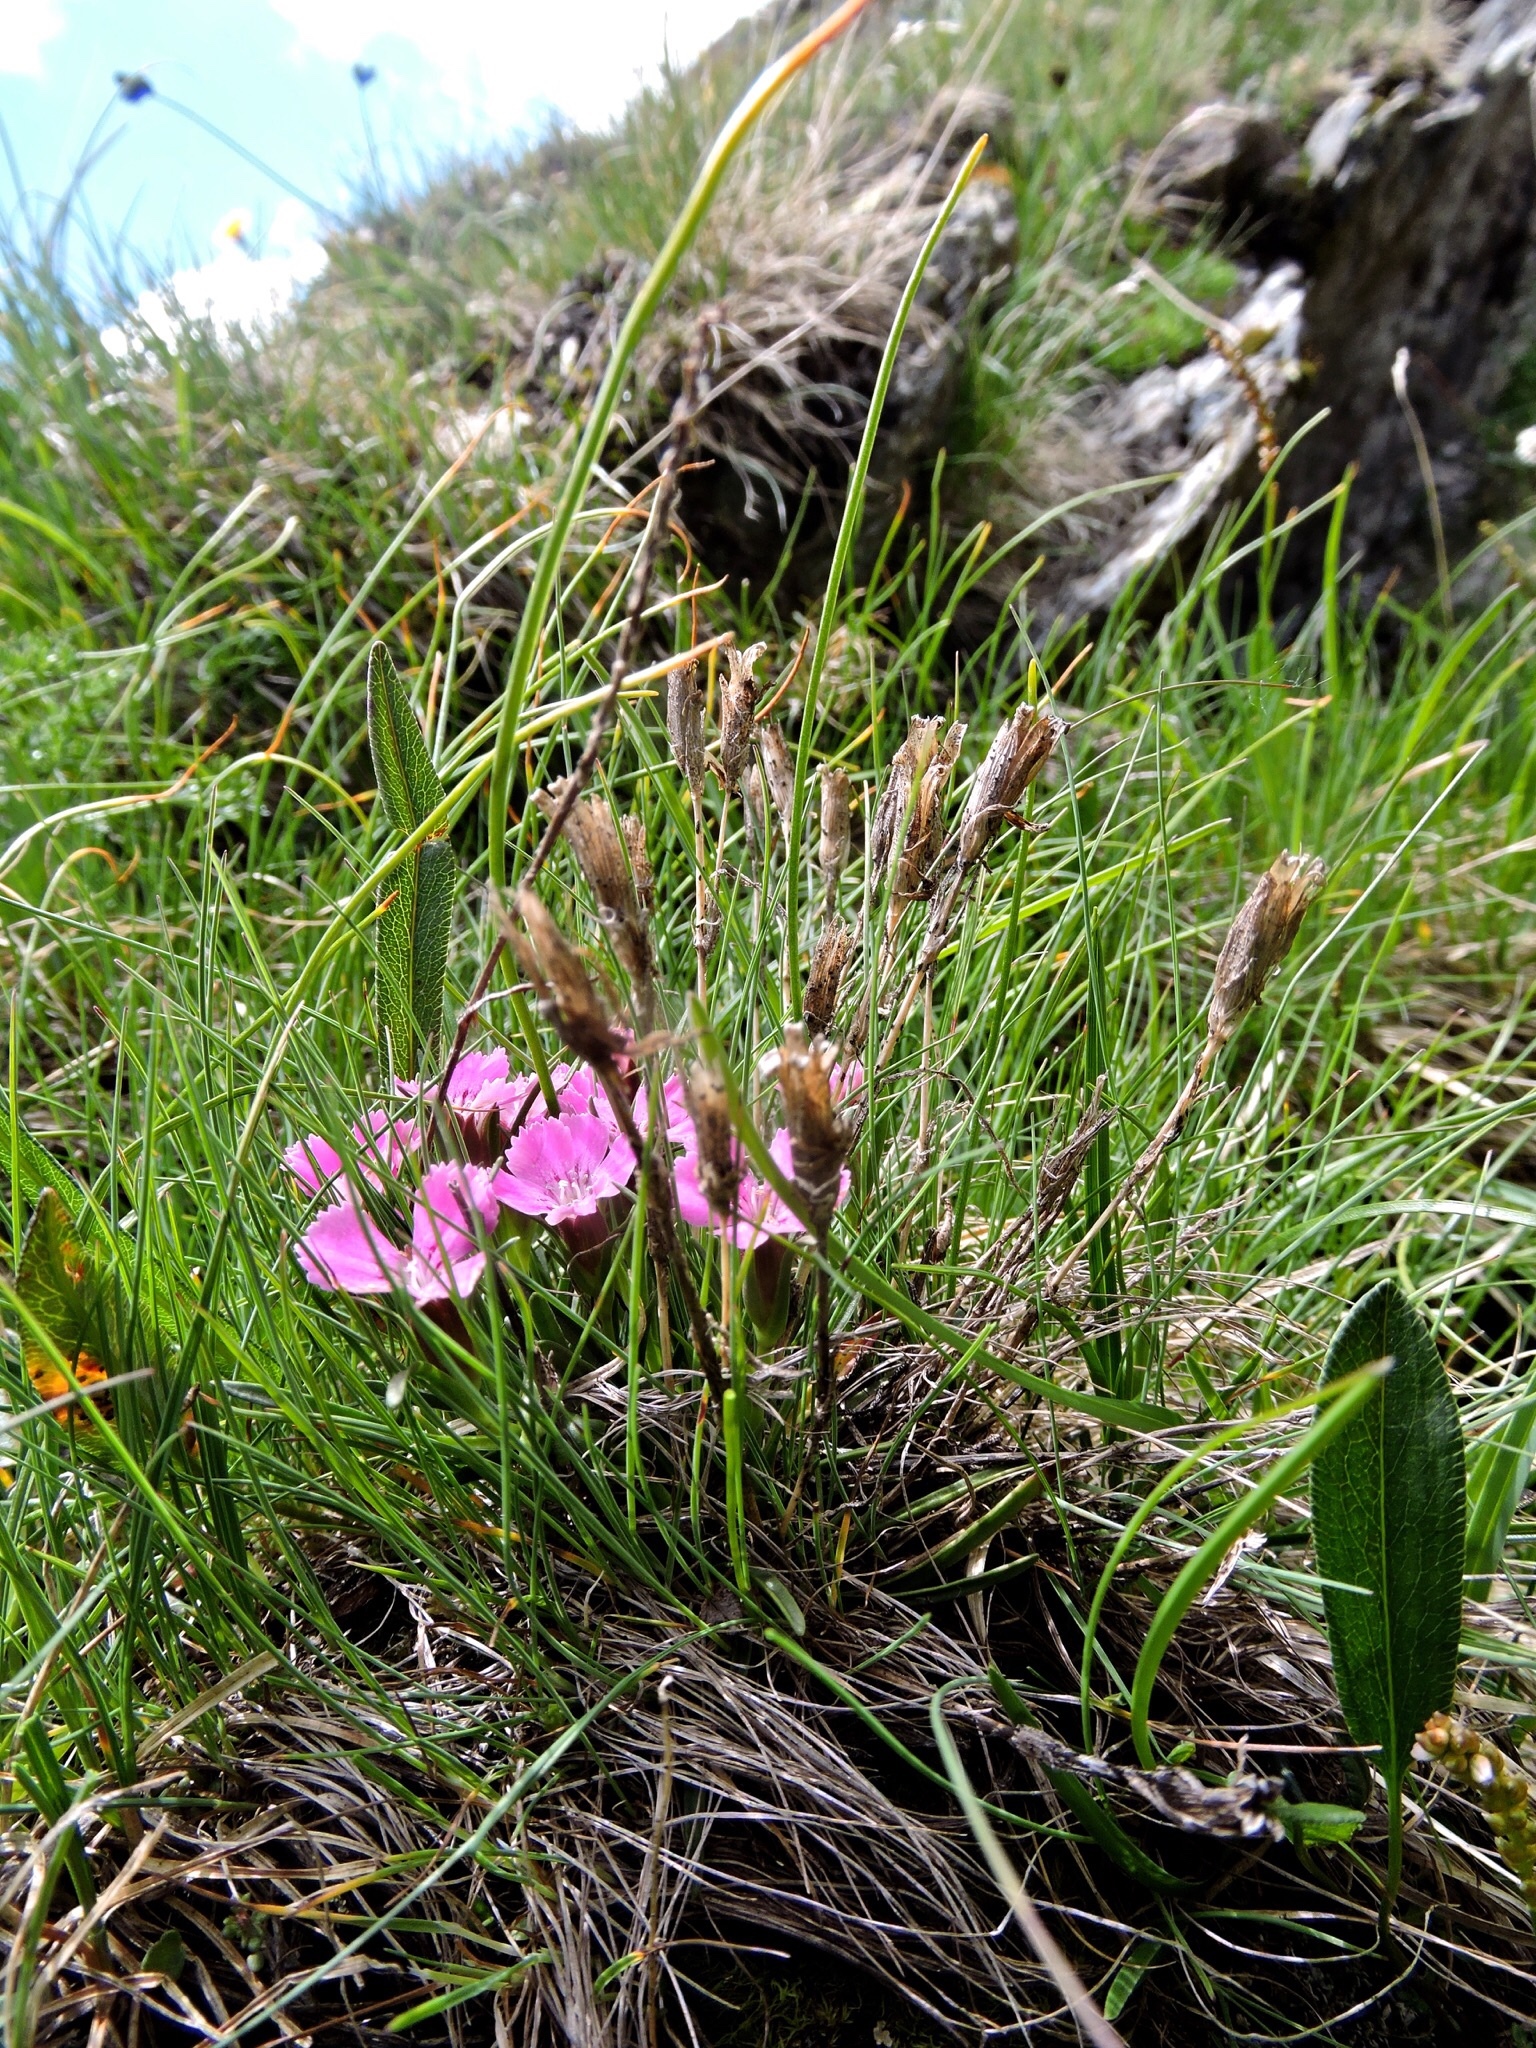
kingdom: Plantae
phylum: Tracheophyta
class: Magnoliopsida
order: Caryophyllales
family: Caryophyllaceae
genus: Dianthus
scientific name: Dianthus glacialis
